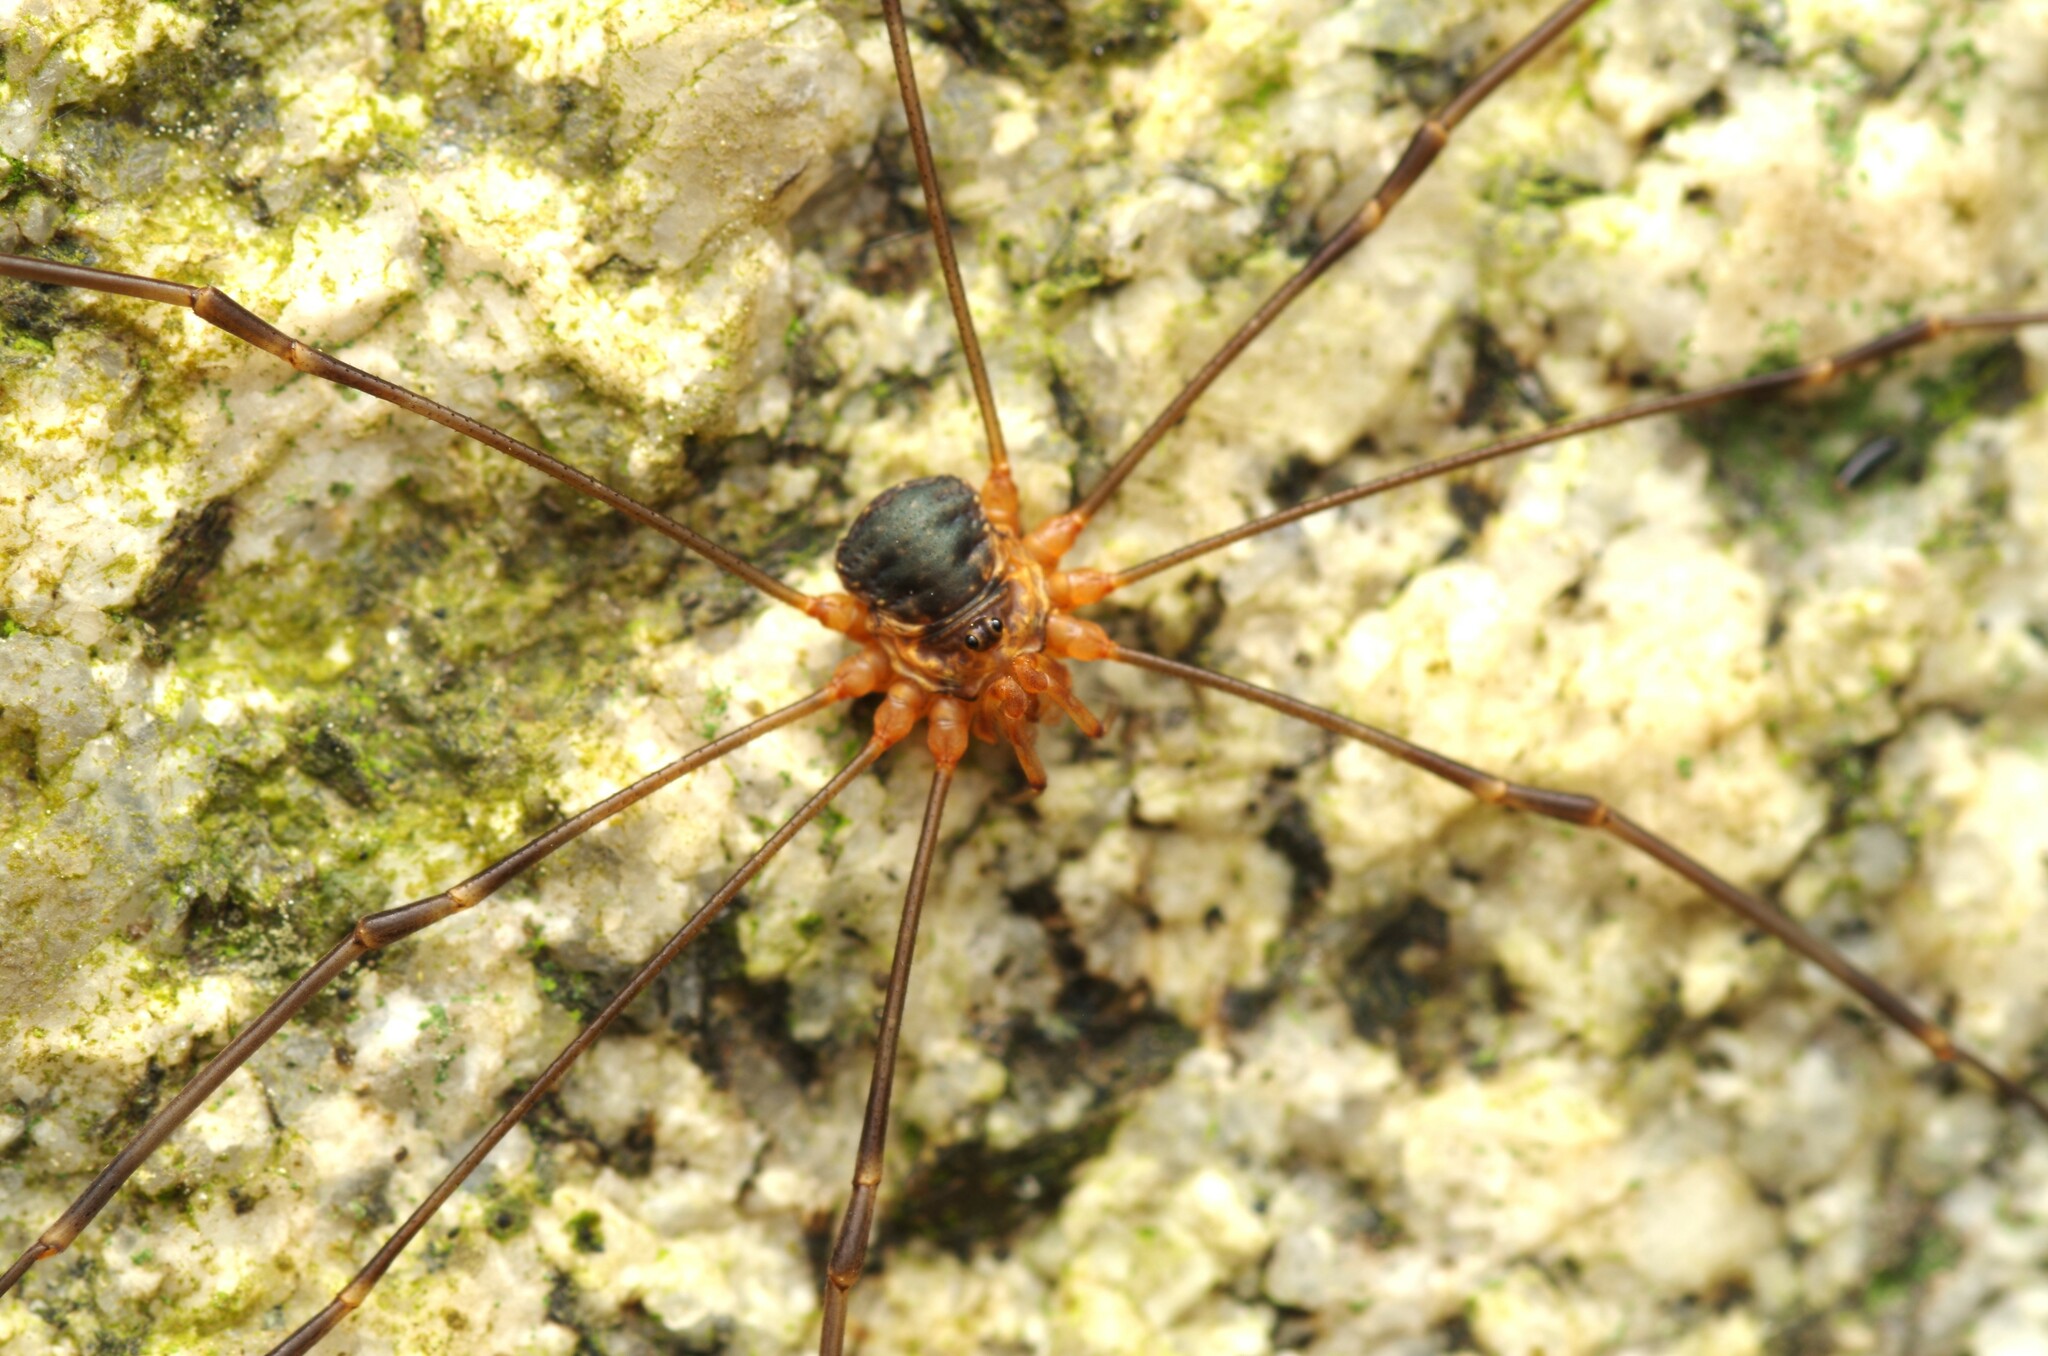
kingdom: Animalia
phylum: Arthropoda
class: Arachnida
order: Opiliones
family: Phalangiidae
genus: Dicranopalpus
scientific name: Dicranopalpus catariegensis
